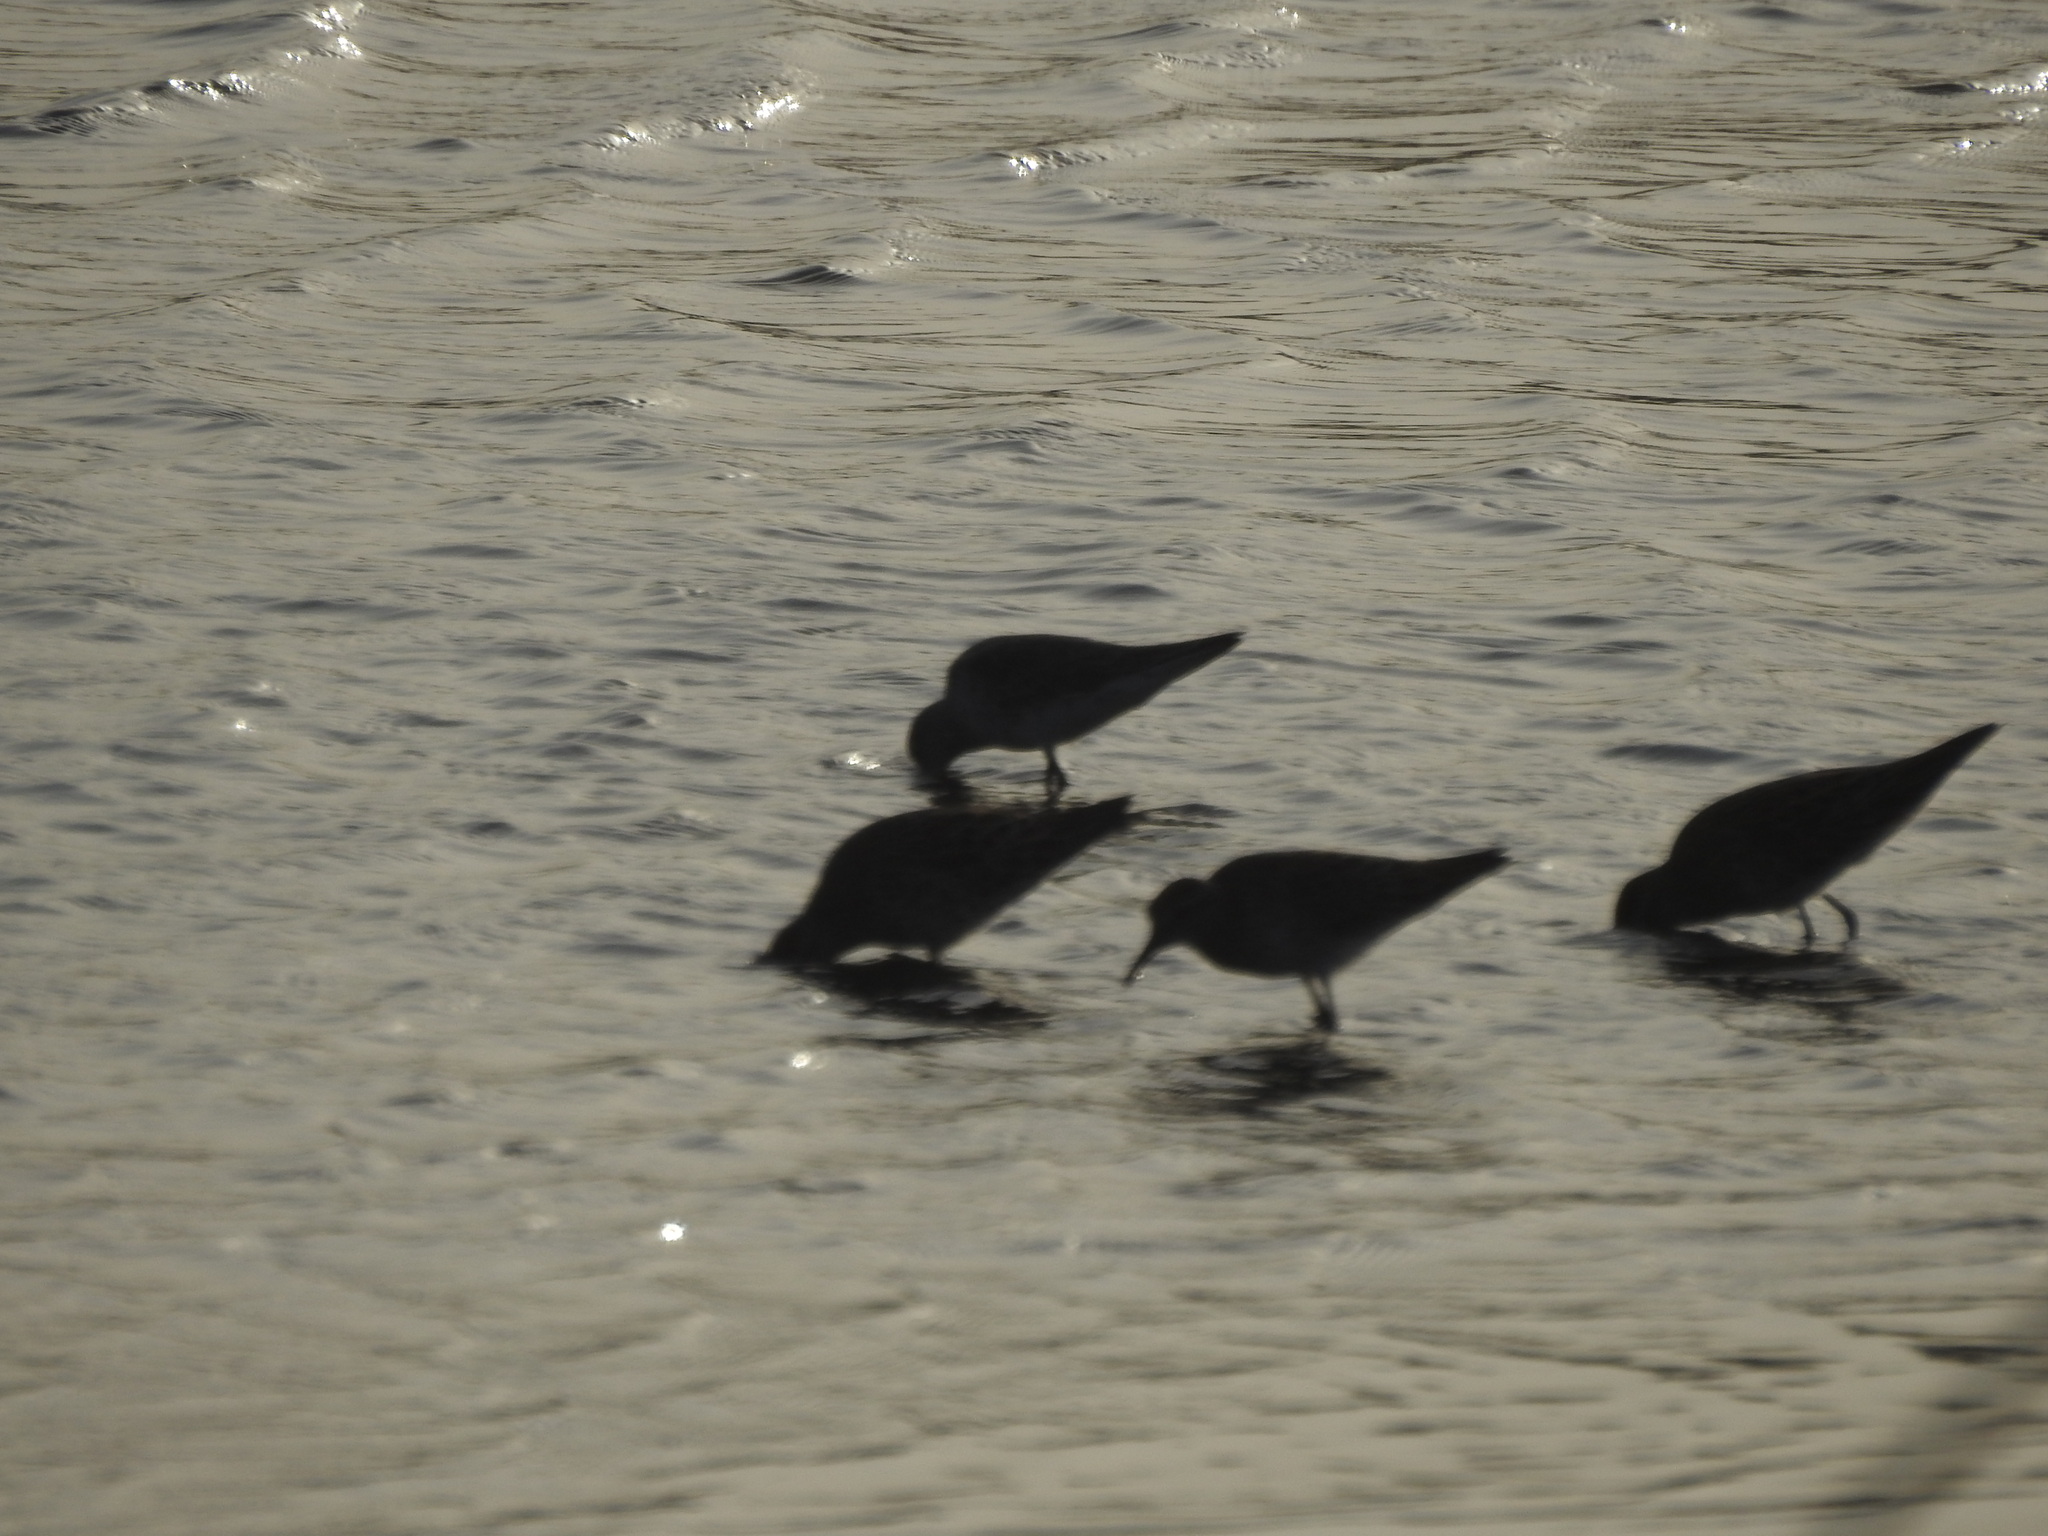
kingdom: Animalia
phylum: Chordata
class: Aves
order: Charadriiformes
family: Scolopacidae
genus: Calidris
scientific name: Calidris acuminata
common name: Sharp-tailed sandpiper
